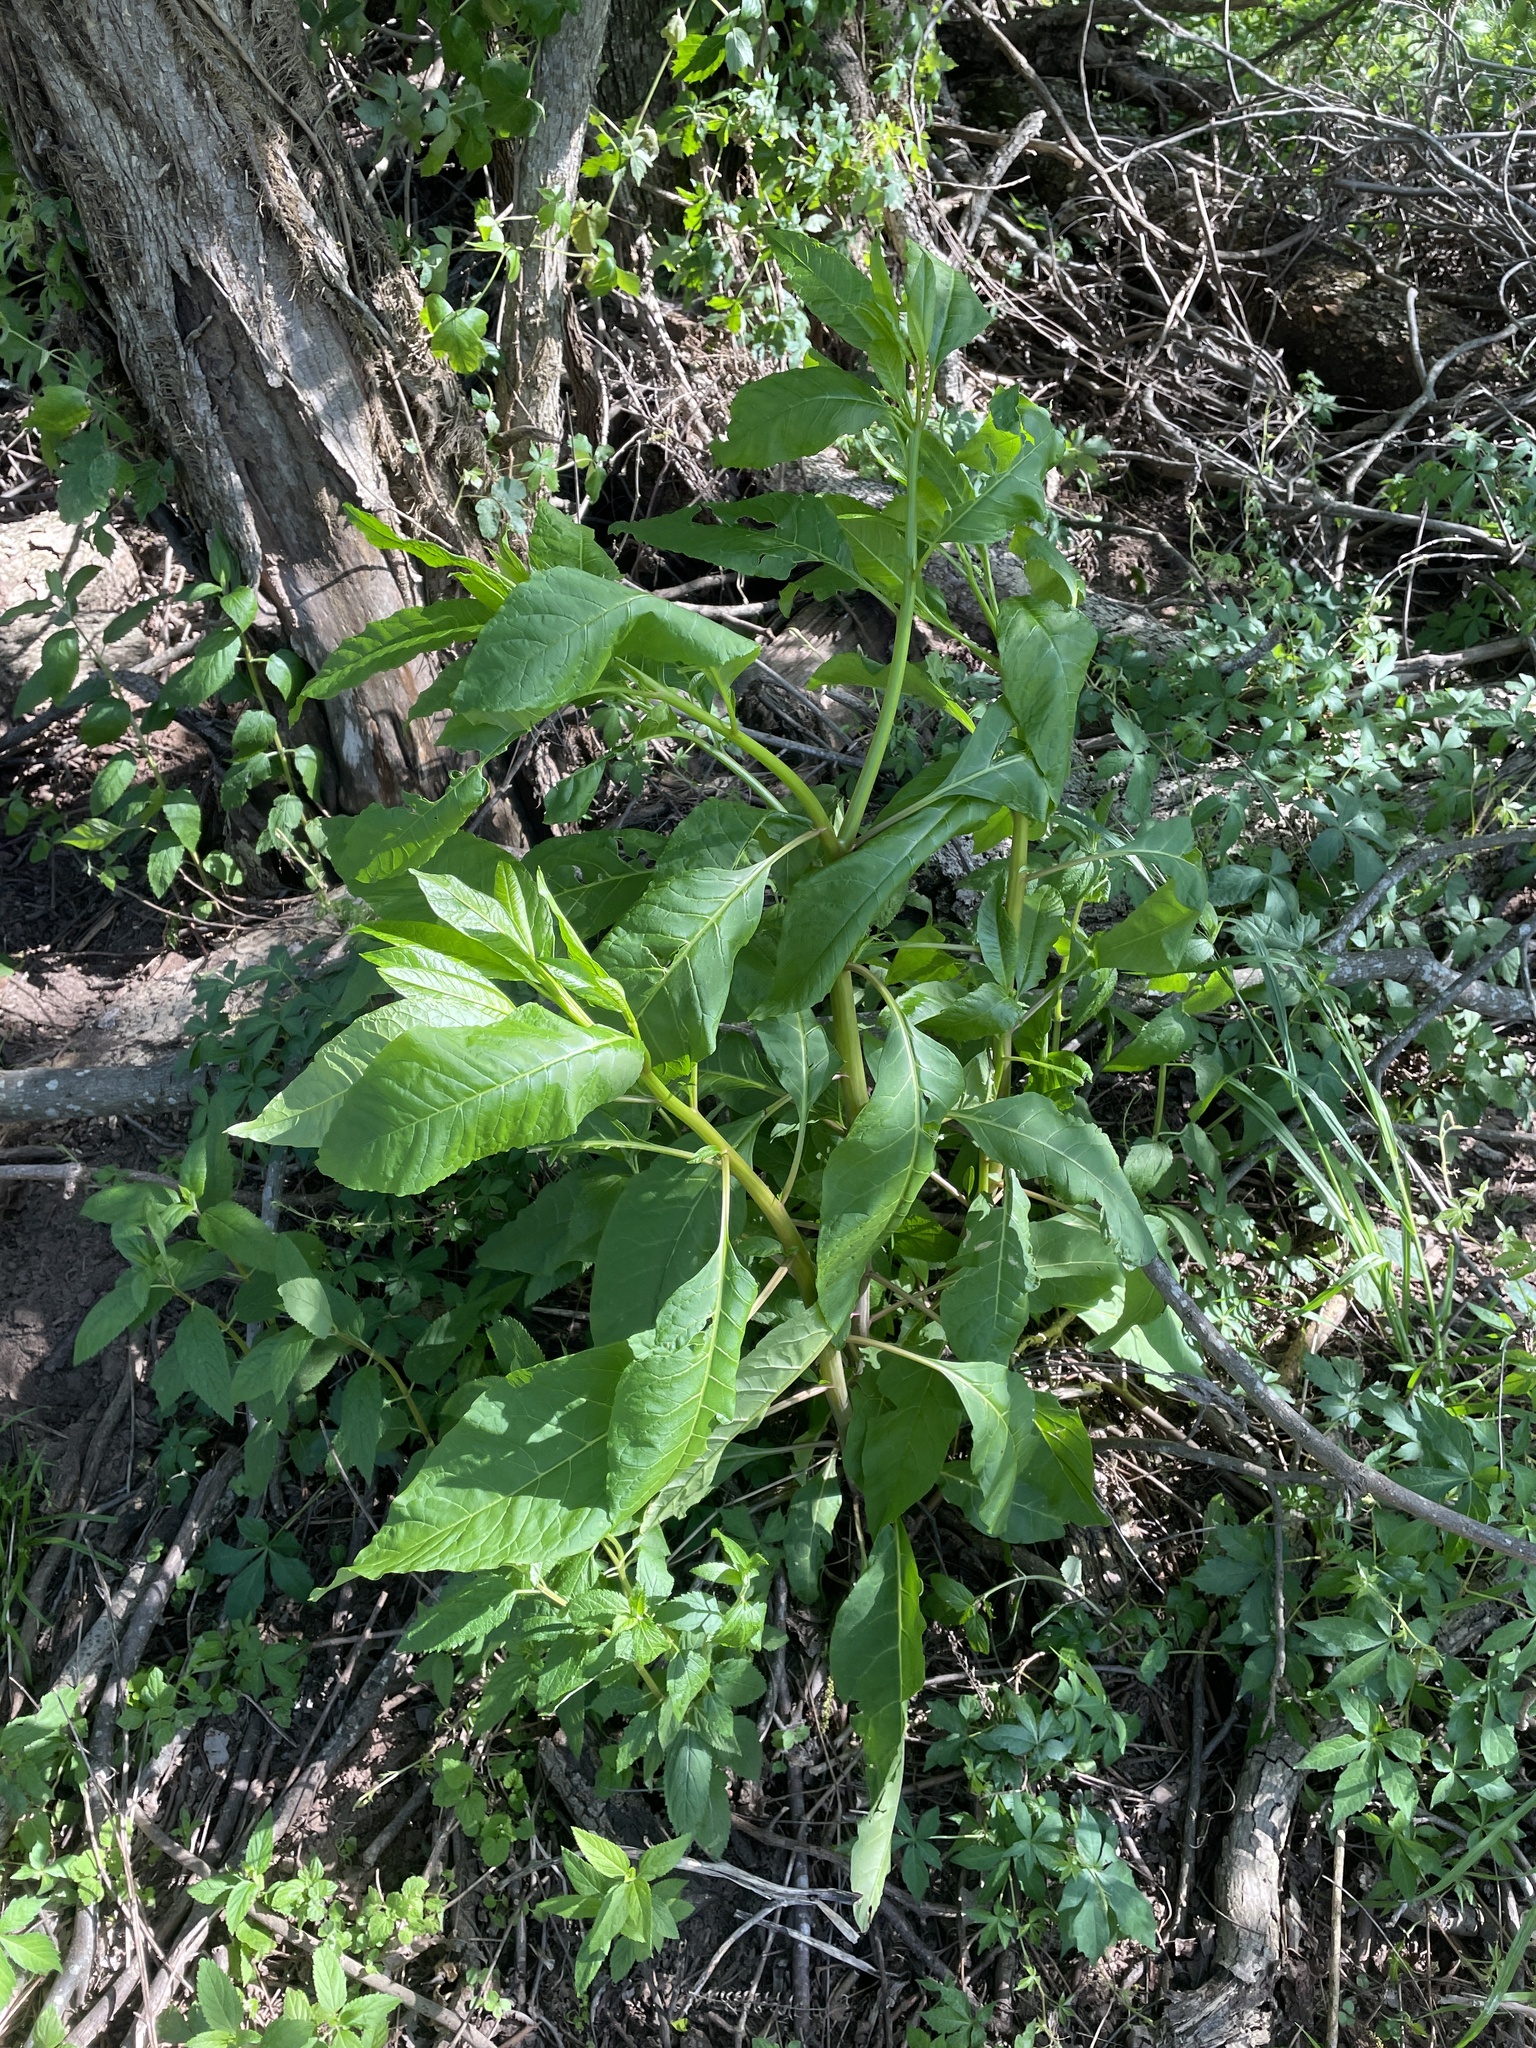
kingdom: Plantae
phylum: Tracheophyta
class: Magnoliopsida
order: Caryophyllales
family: Phytolaccaceae
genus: Phytolacca
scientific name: Phytolacca americana
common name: American pokeweed
